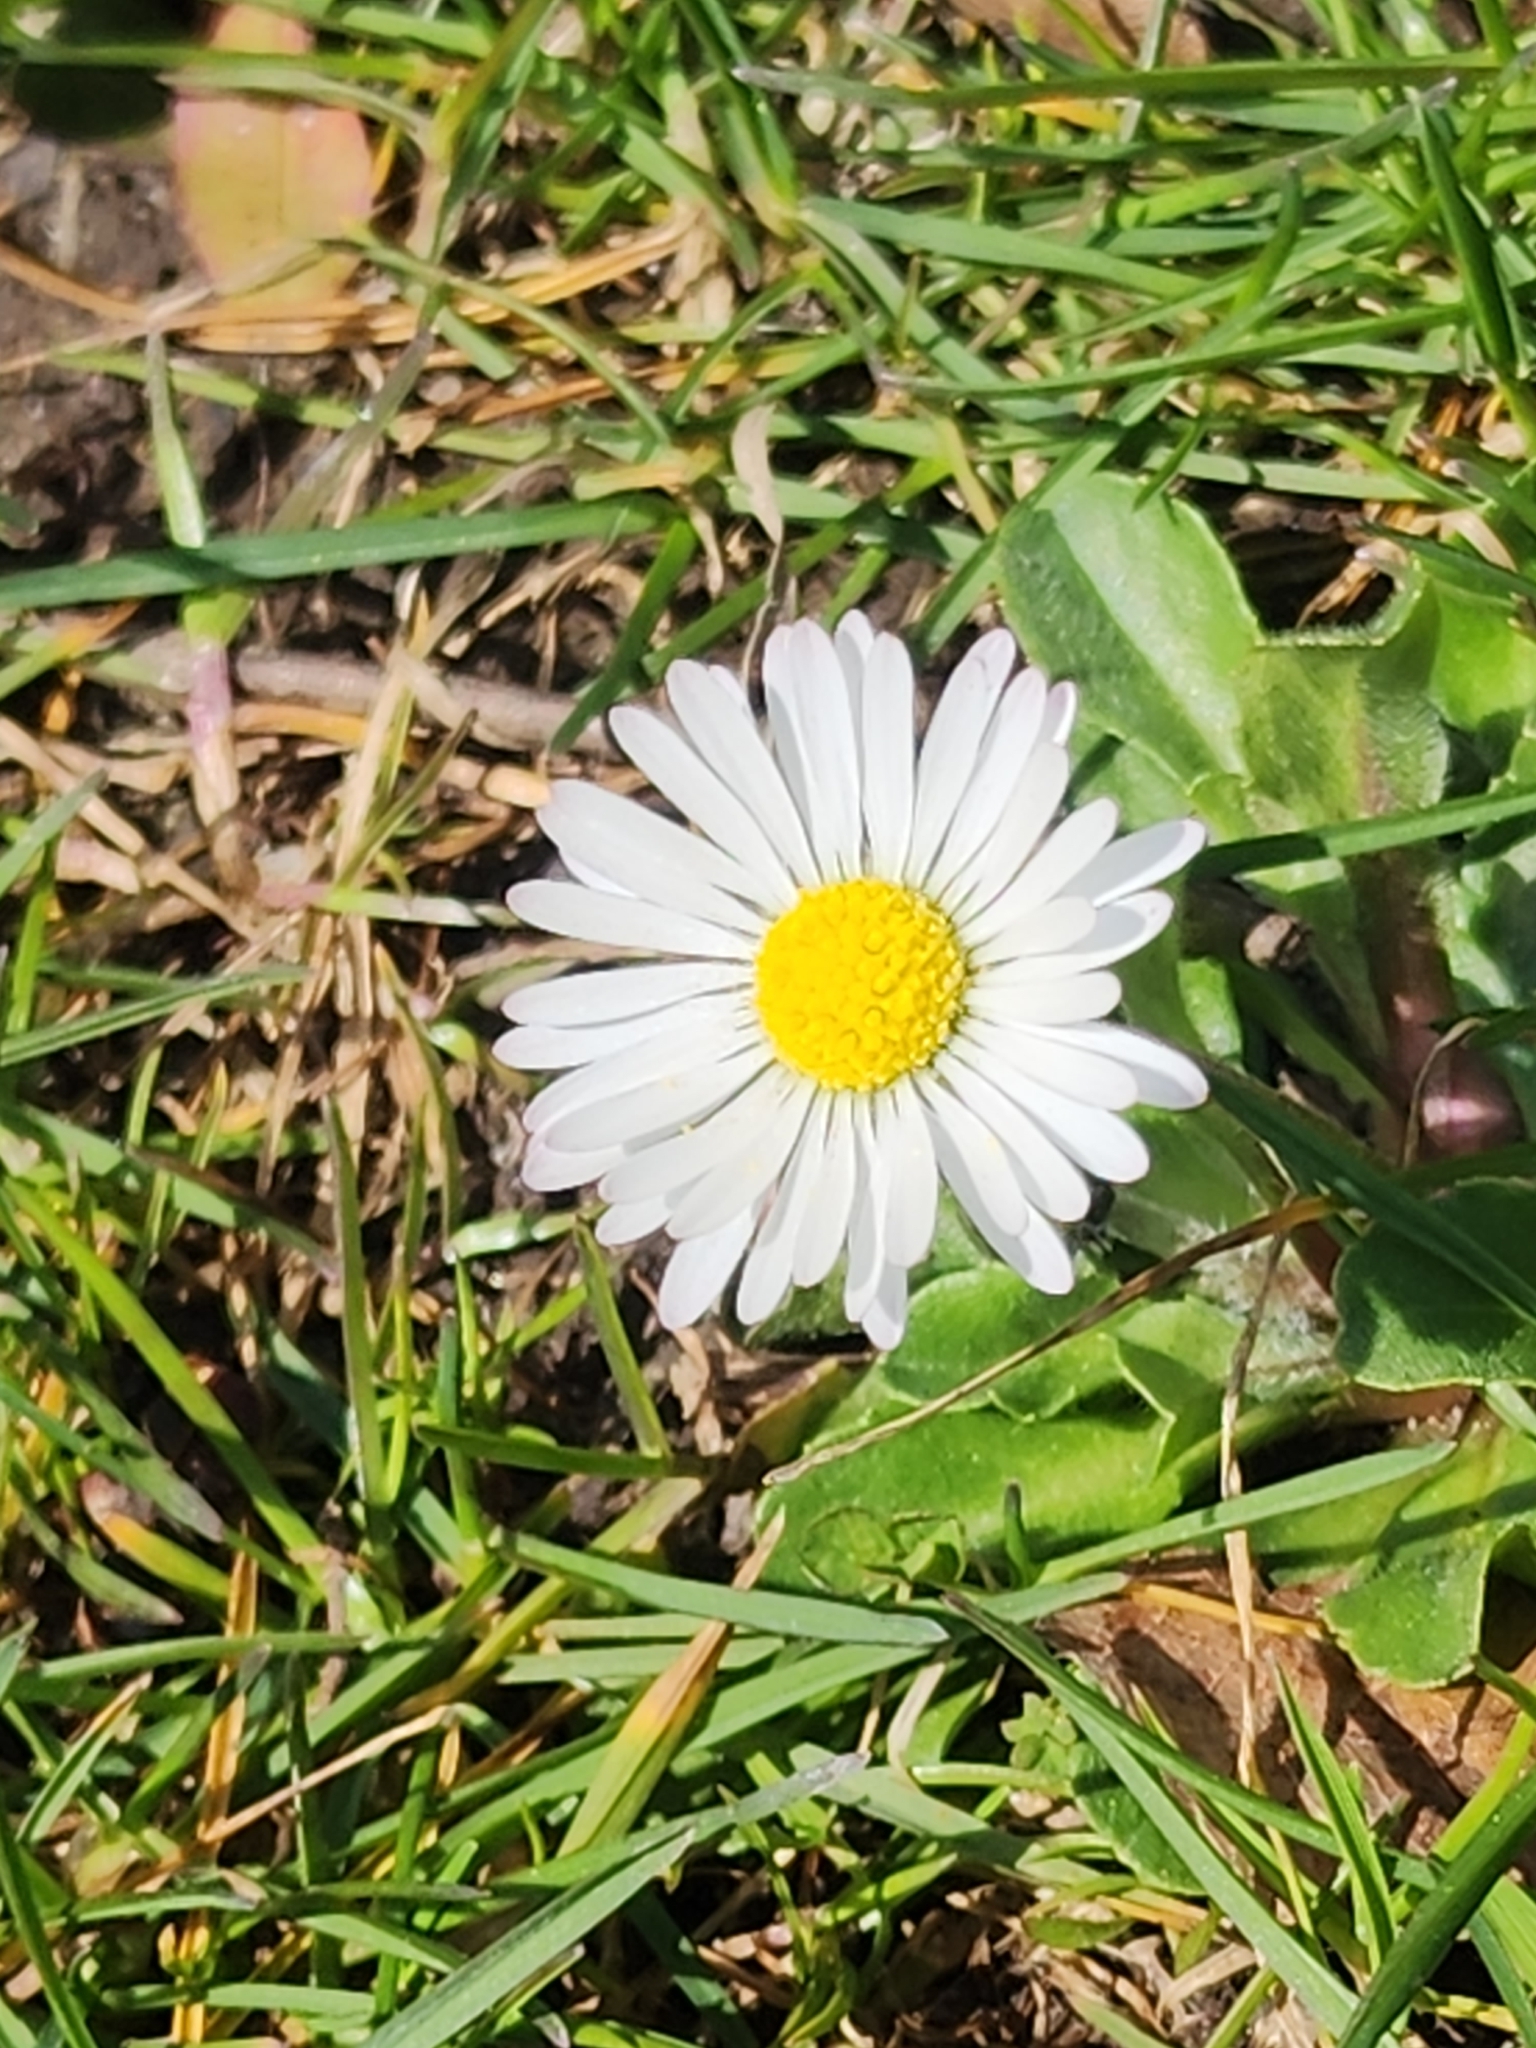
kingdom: Plantae
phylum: Tracheophyta
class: Magnoliopsida
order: Asterales
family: Asteraceae
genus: Bellis
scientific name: Bellis perennis
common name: Lawndaisy
